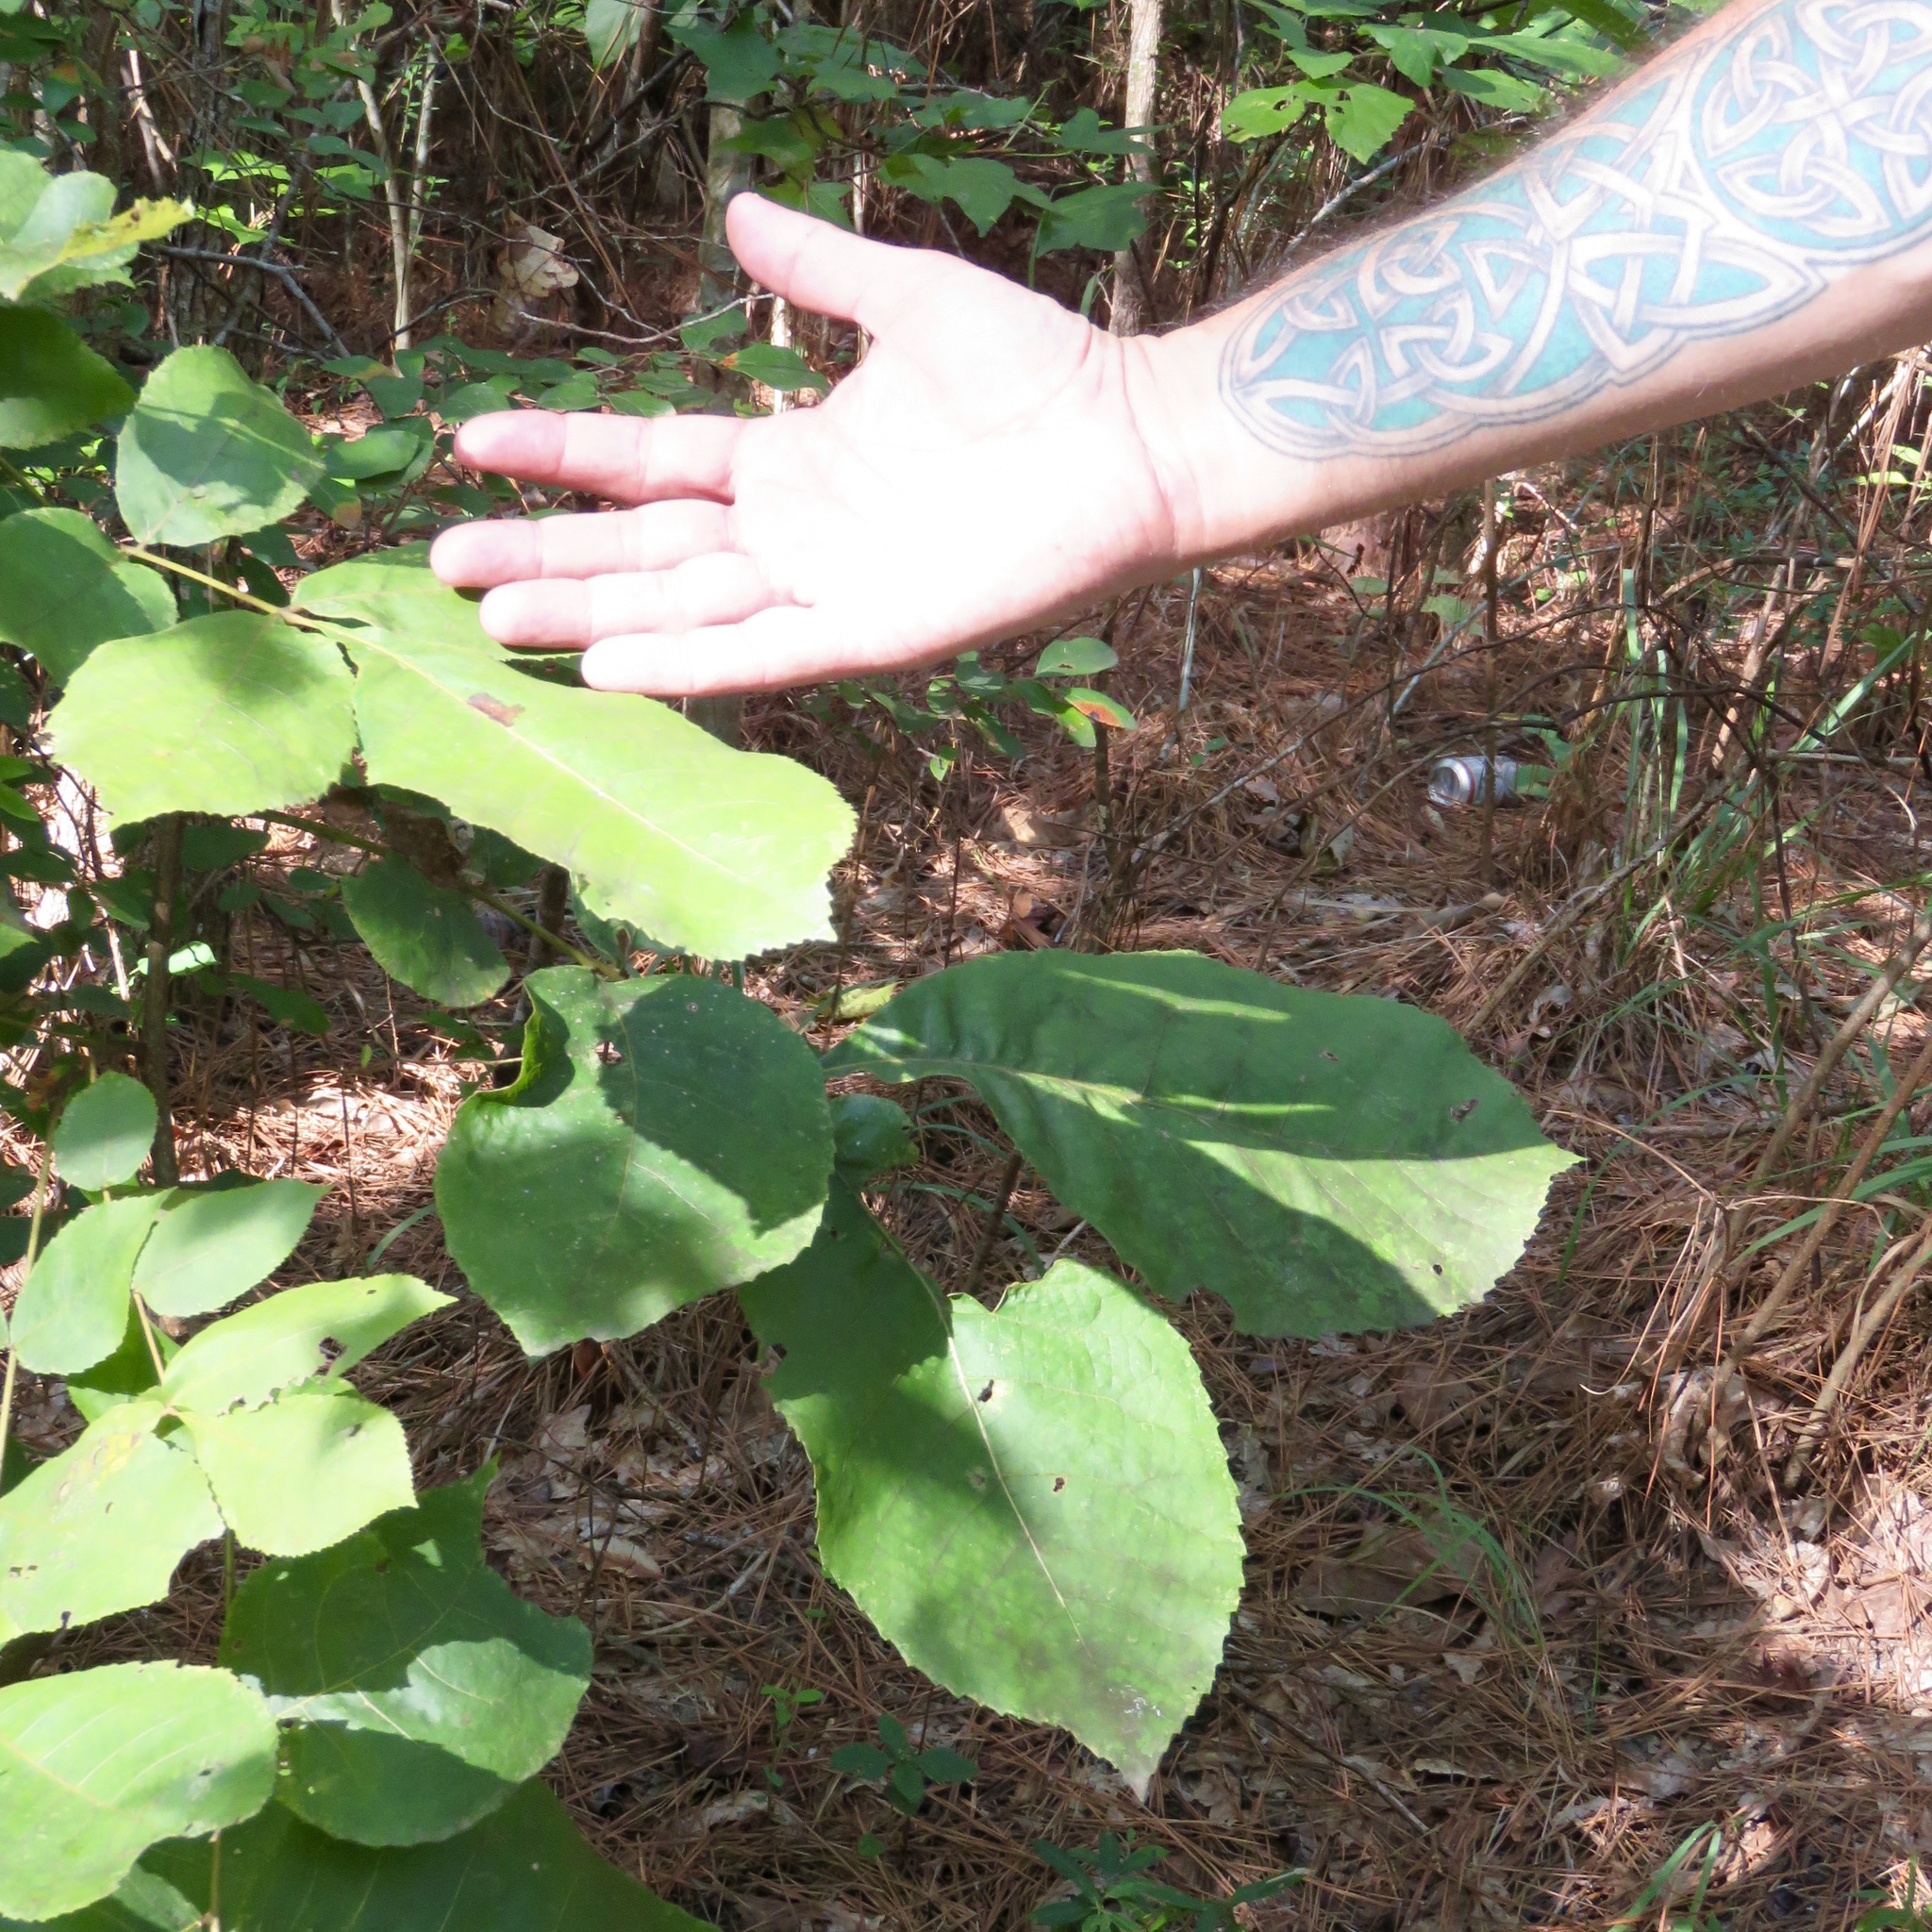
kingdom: Plantae
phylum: Tracheophyta
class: Magnoliopsida
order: Fagales
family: Juglandaceae
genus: Carya
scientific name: Carya texana
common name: Black hickory
